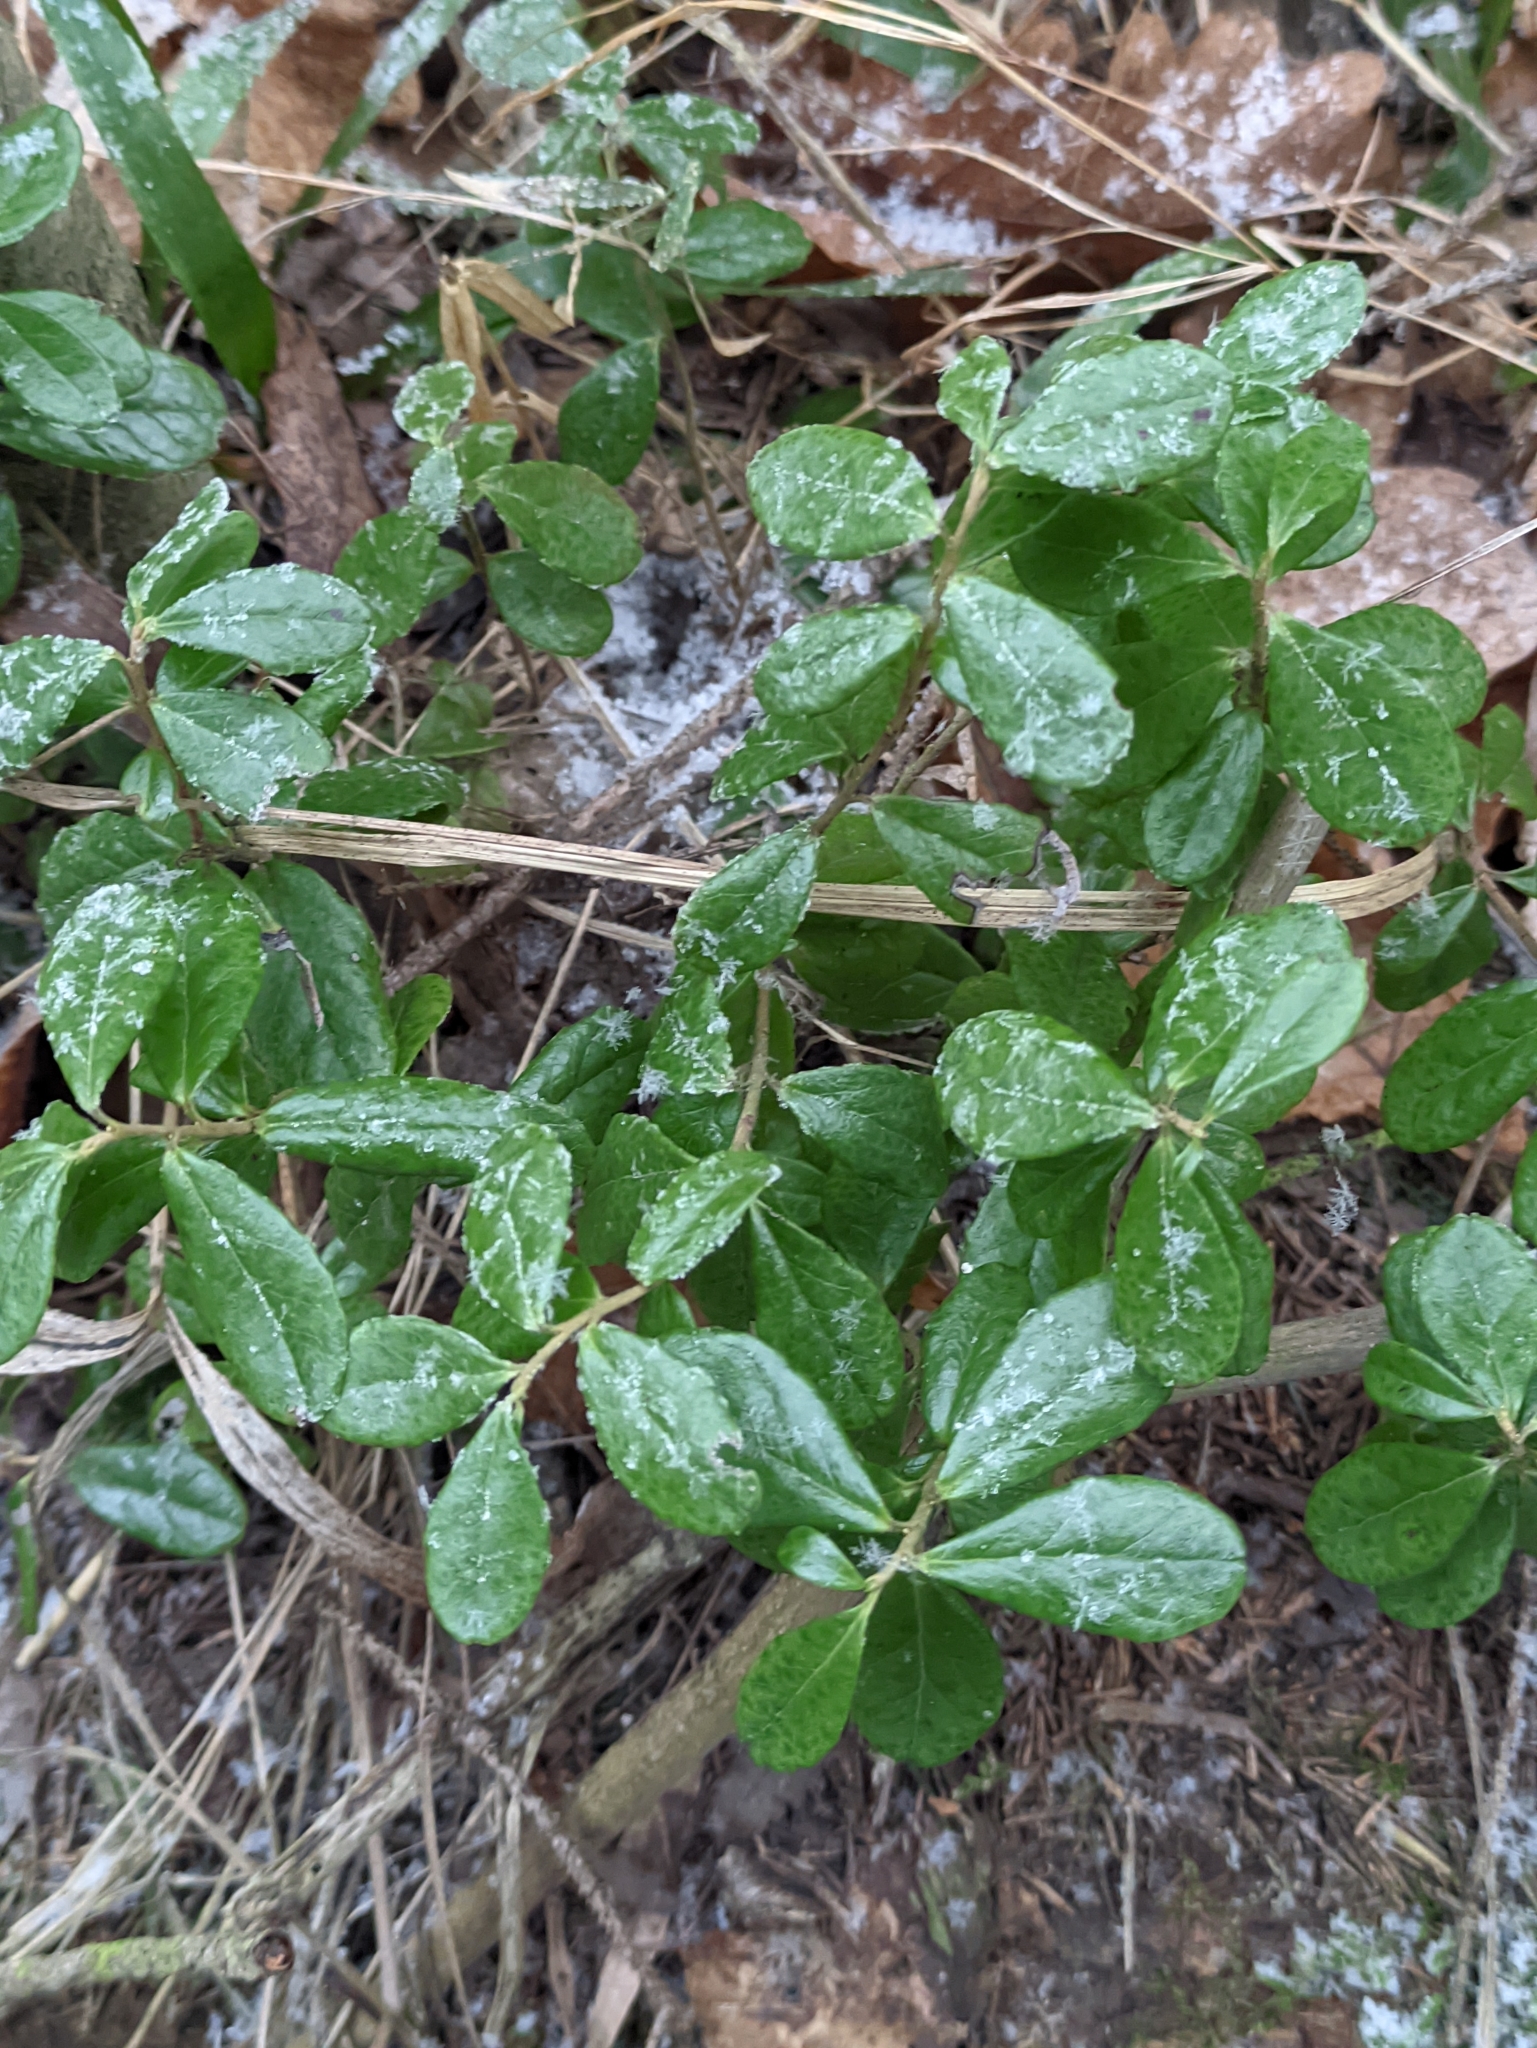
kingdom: Plantae
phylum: Tracheophyta
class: Magnoliopsida
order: Ericales
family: Ericaceae
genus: Vaccinium
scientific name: Vaccinium vitis-idaea
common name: Cowberry
